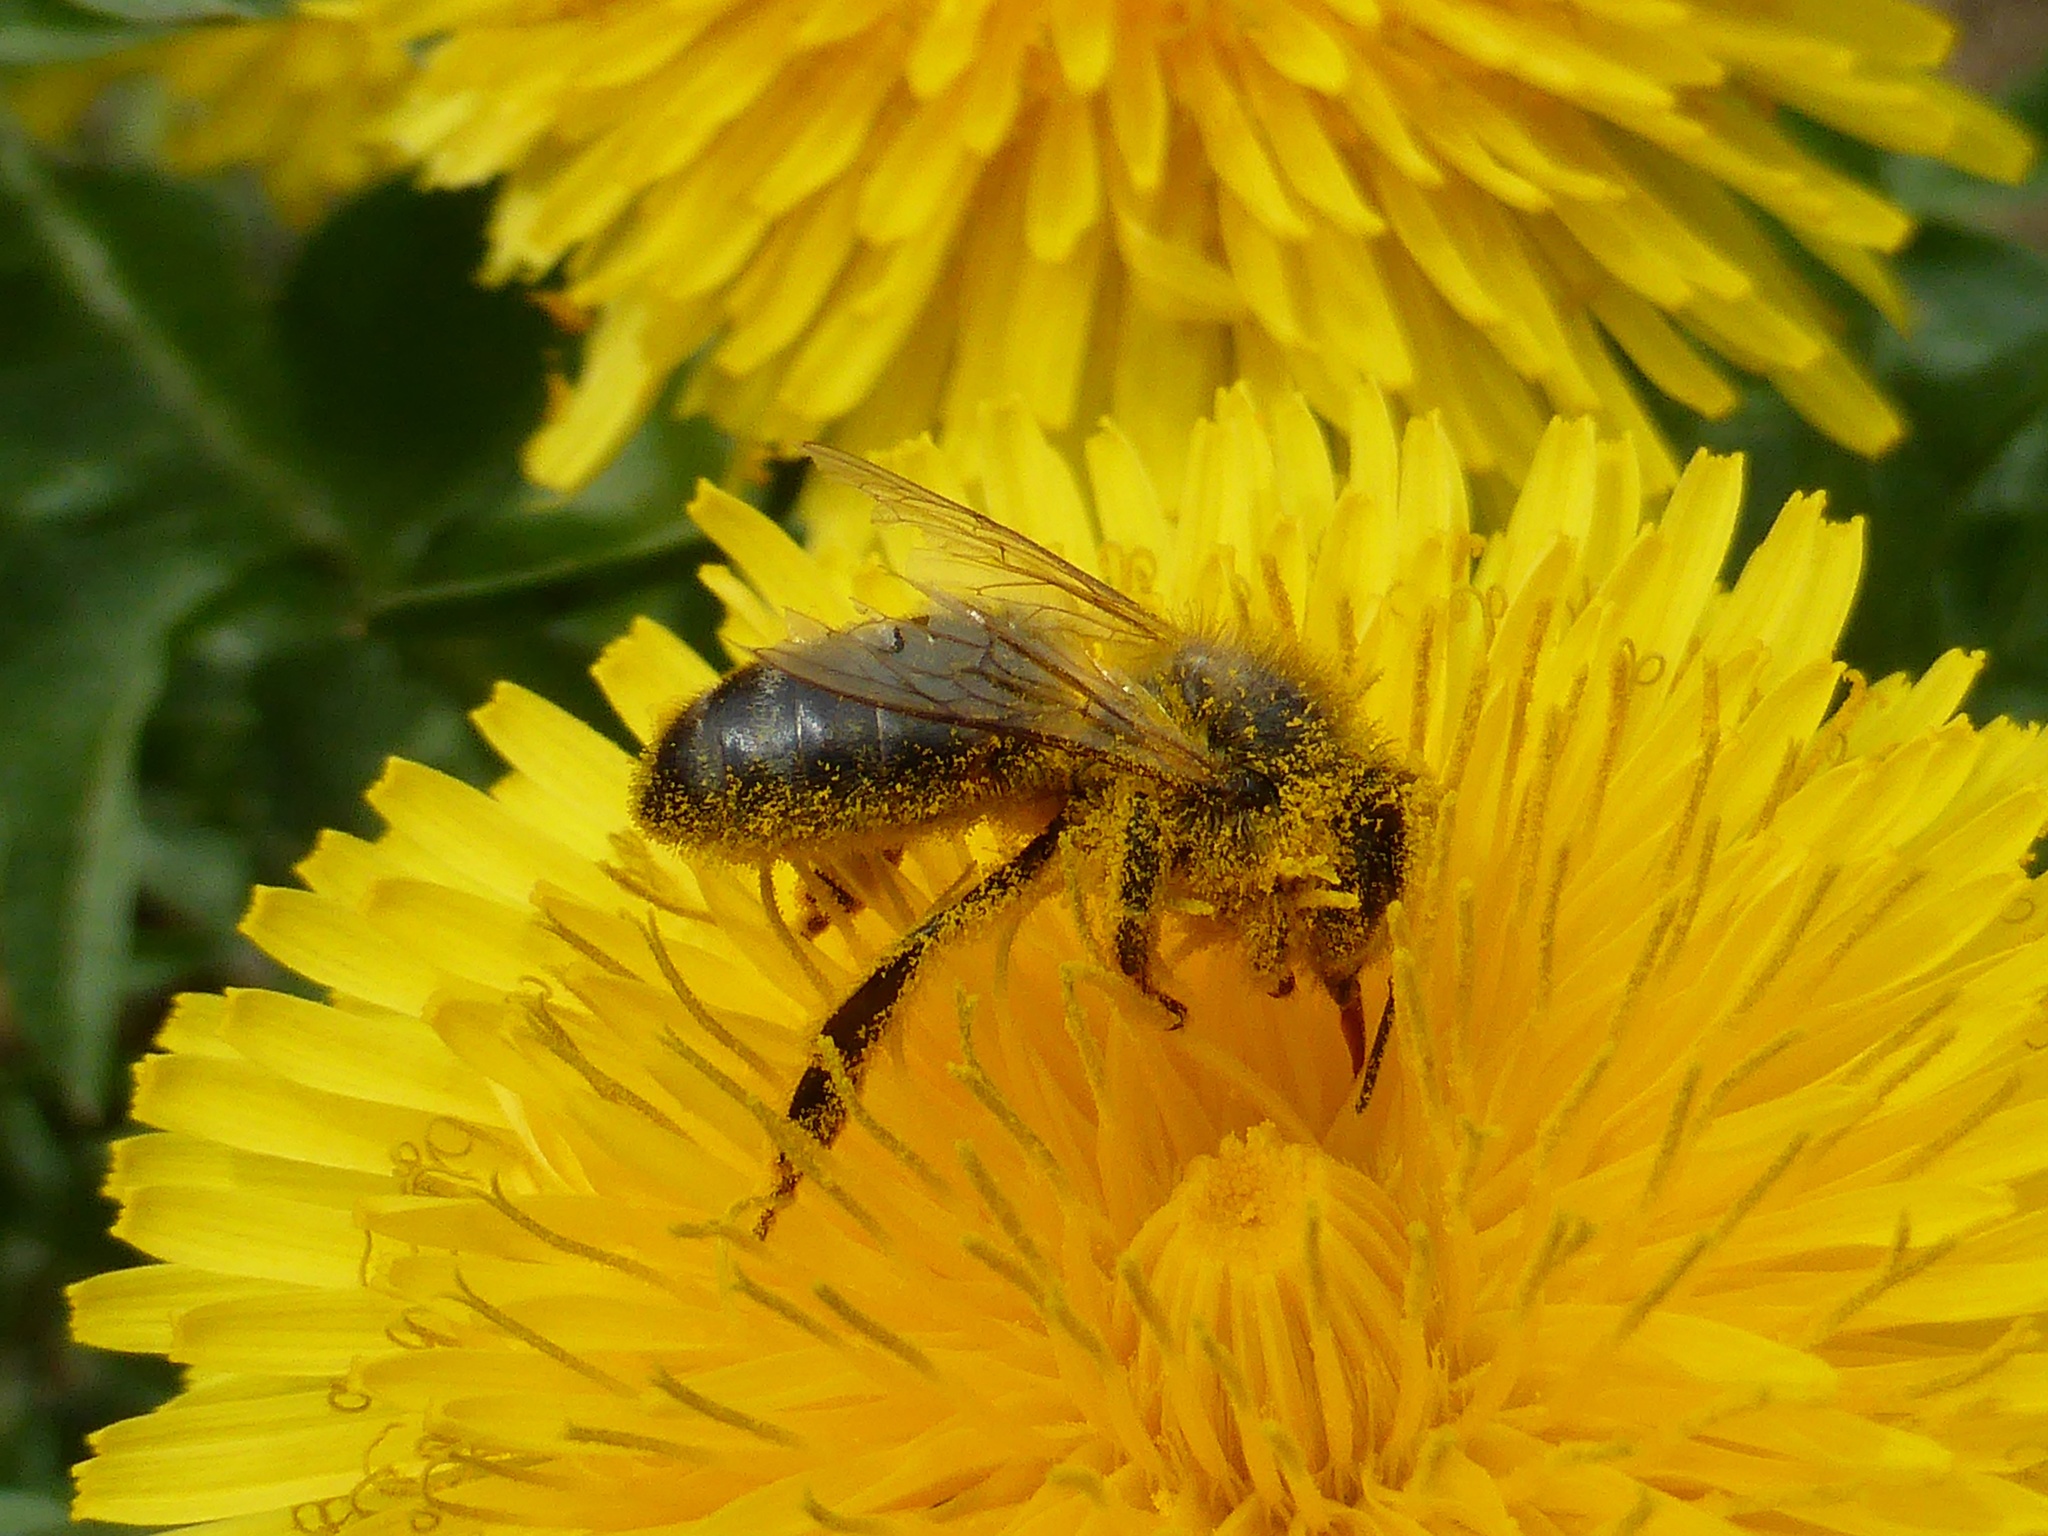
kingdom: Animalia
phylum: Arthropoda
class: Insecta
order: Hymenoptera
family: Apidae
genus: Apis
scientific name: Apis mellifera
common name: Honey bee
